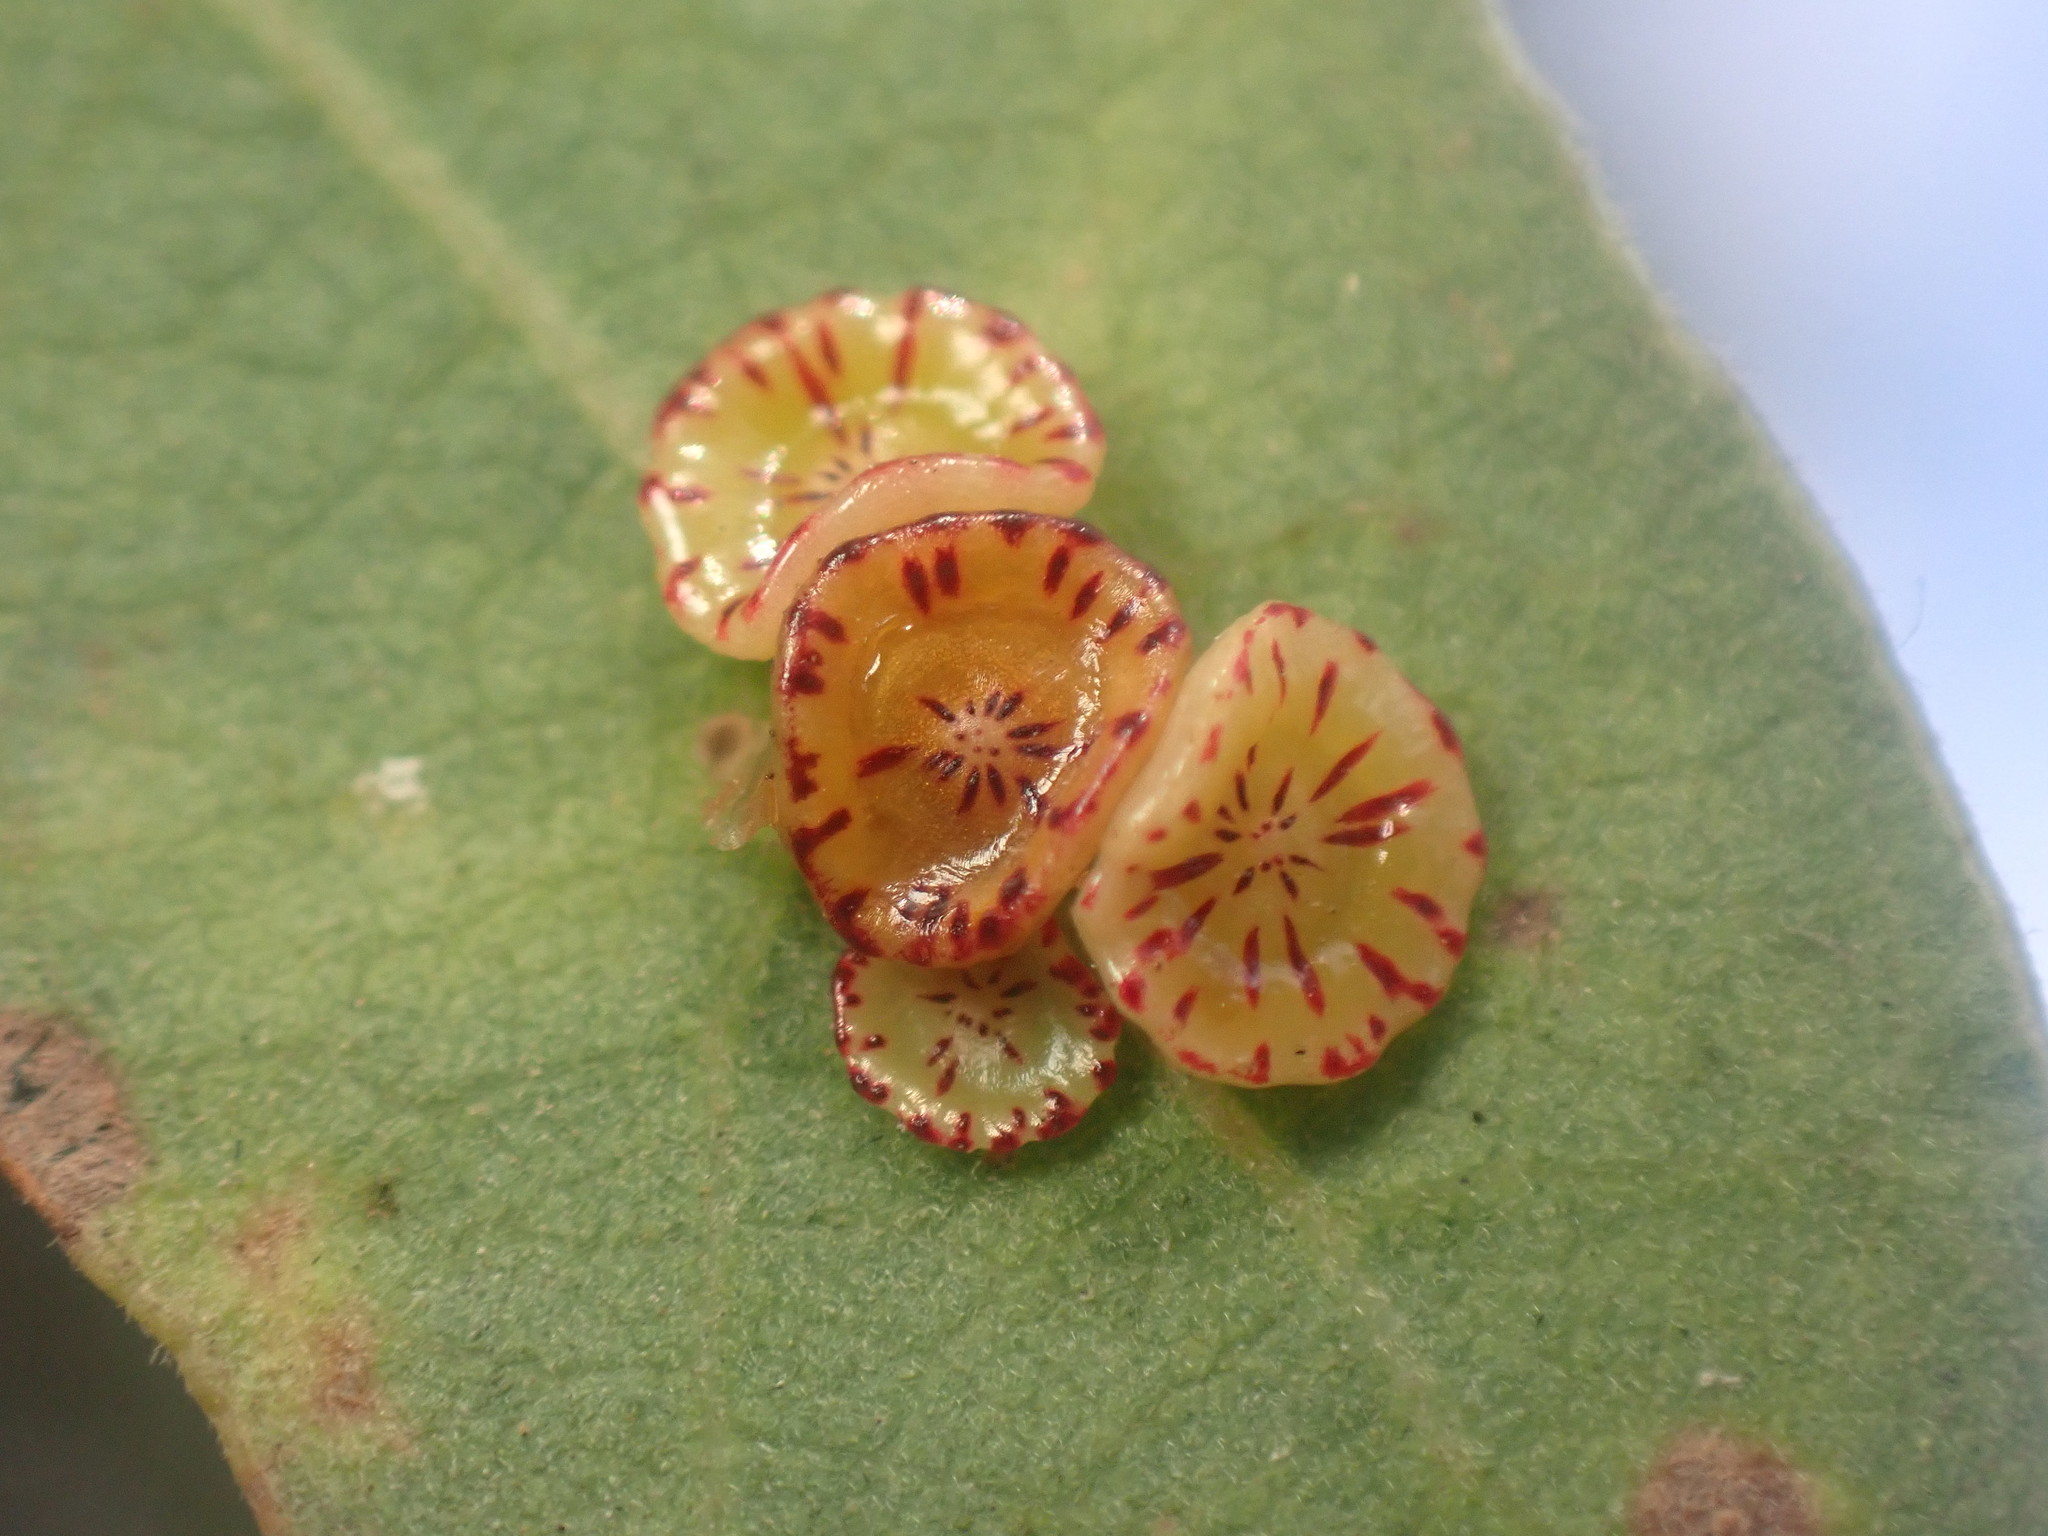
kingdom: Animalia
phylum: Arthropoda
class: Insecta
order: Hymenoptera
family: Cynipidae
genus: Andricus
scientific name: Andricus
